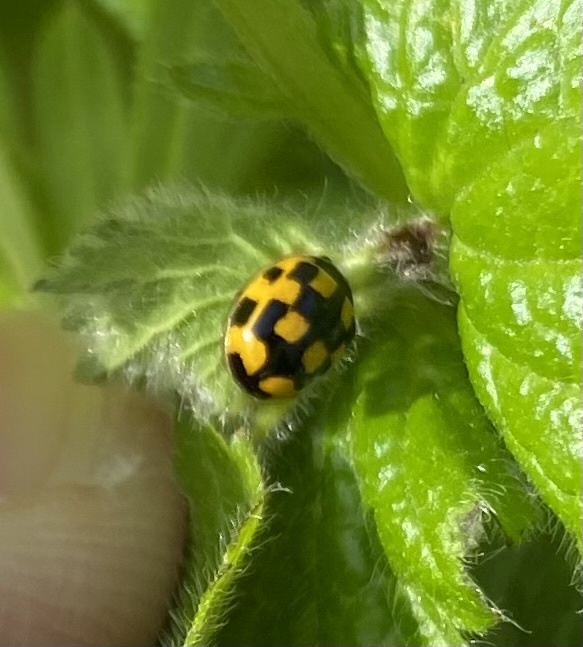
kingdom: Animalia
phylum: Arthropoda
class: Insecta
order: Coleoptera
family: Coccinellidae
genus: Propylaea
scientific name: Propylaea quatuordecimpunctata
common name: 14-spotted ladybird beetle
